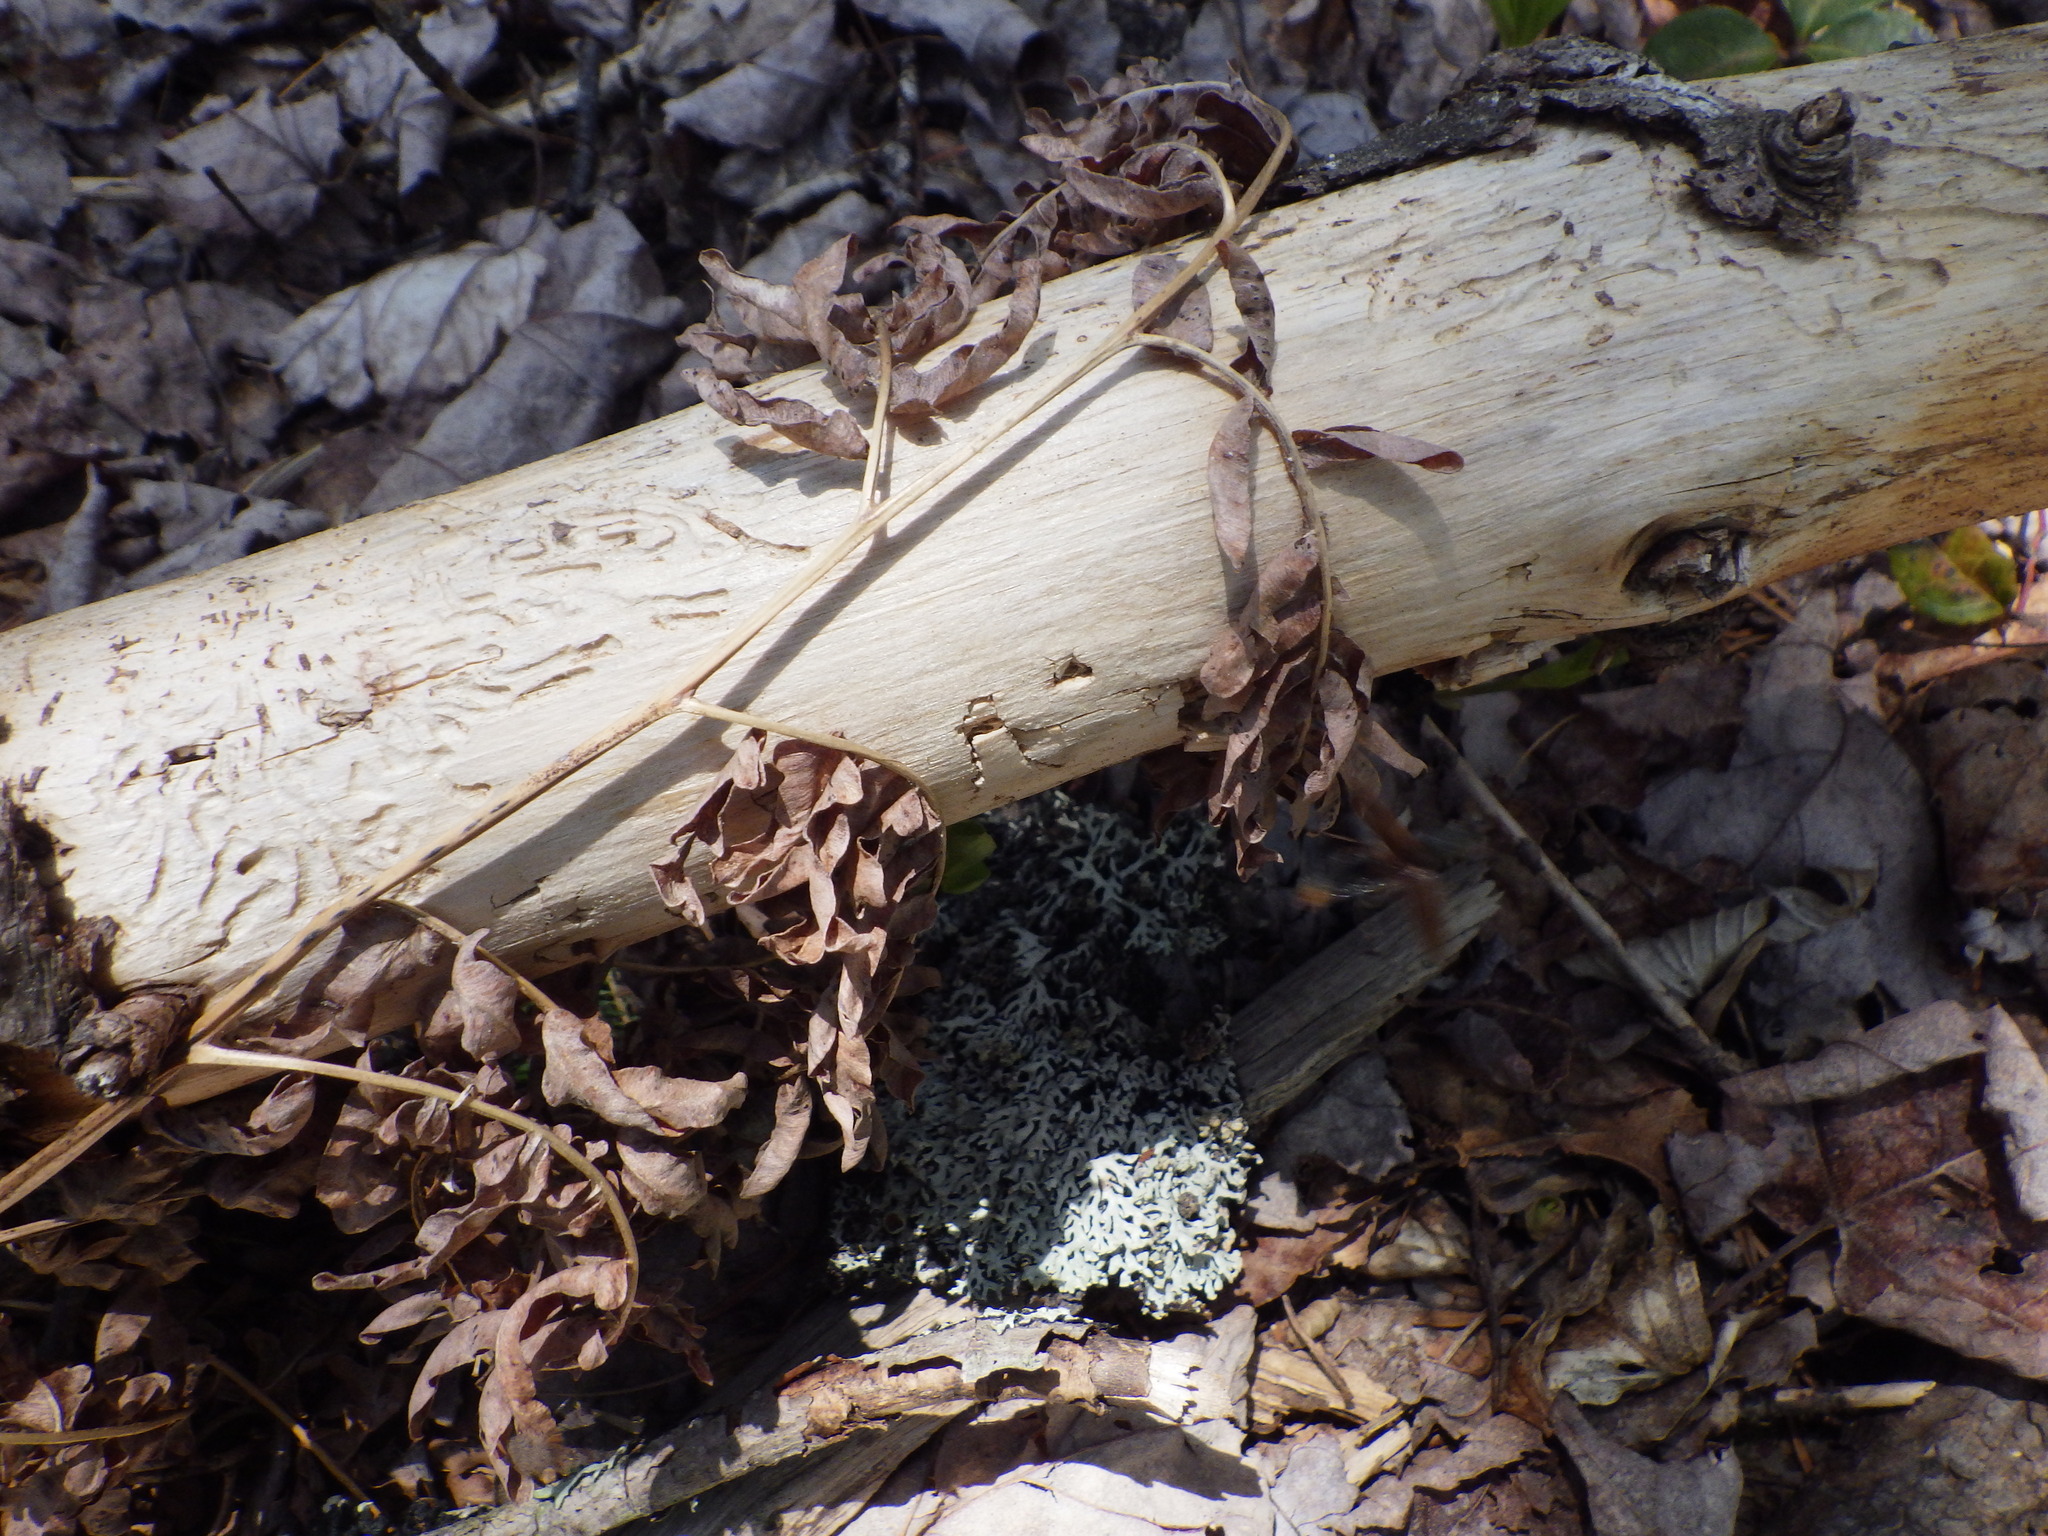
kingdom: Plantae
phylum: Tracheophyta
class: Polypodiopsida
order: Polypodiales
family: Dennstaedtiaceae
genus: Pteridium
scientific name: Pteridium aquilinum
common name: Bracken
